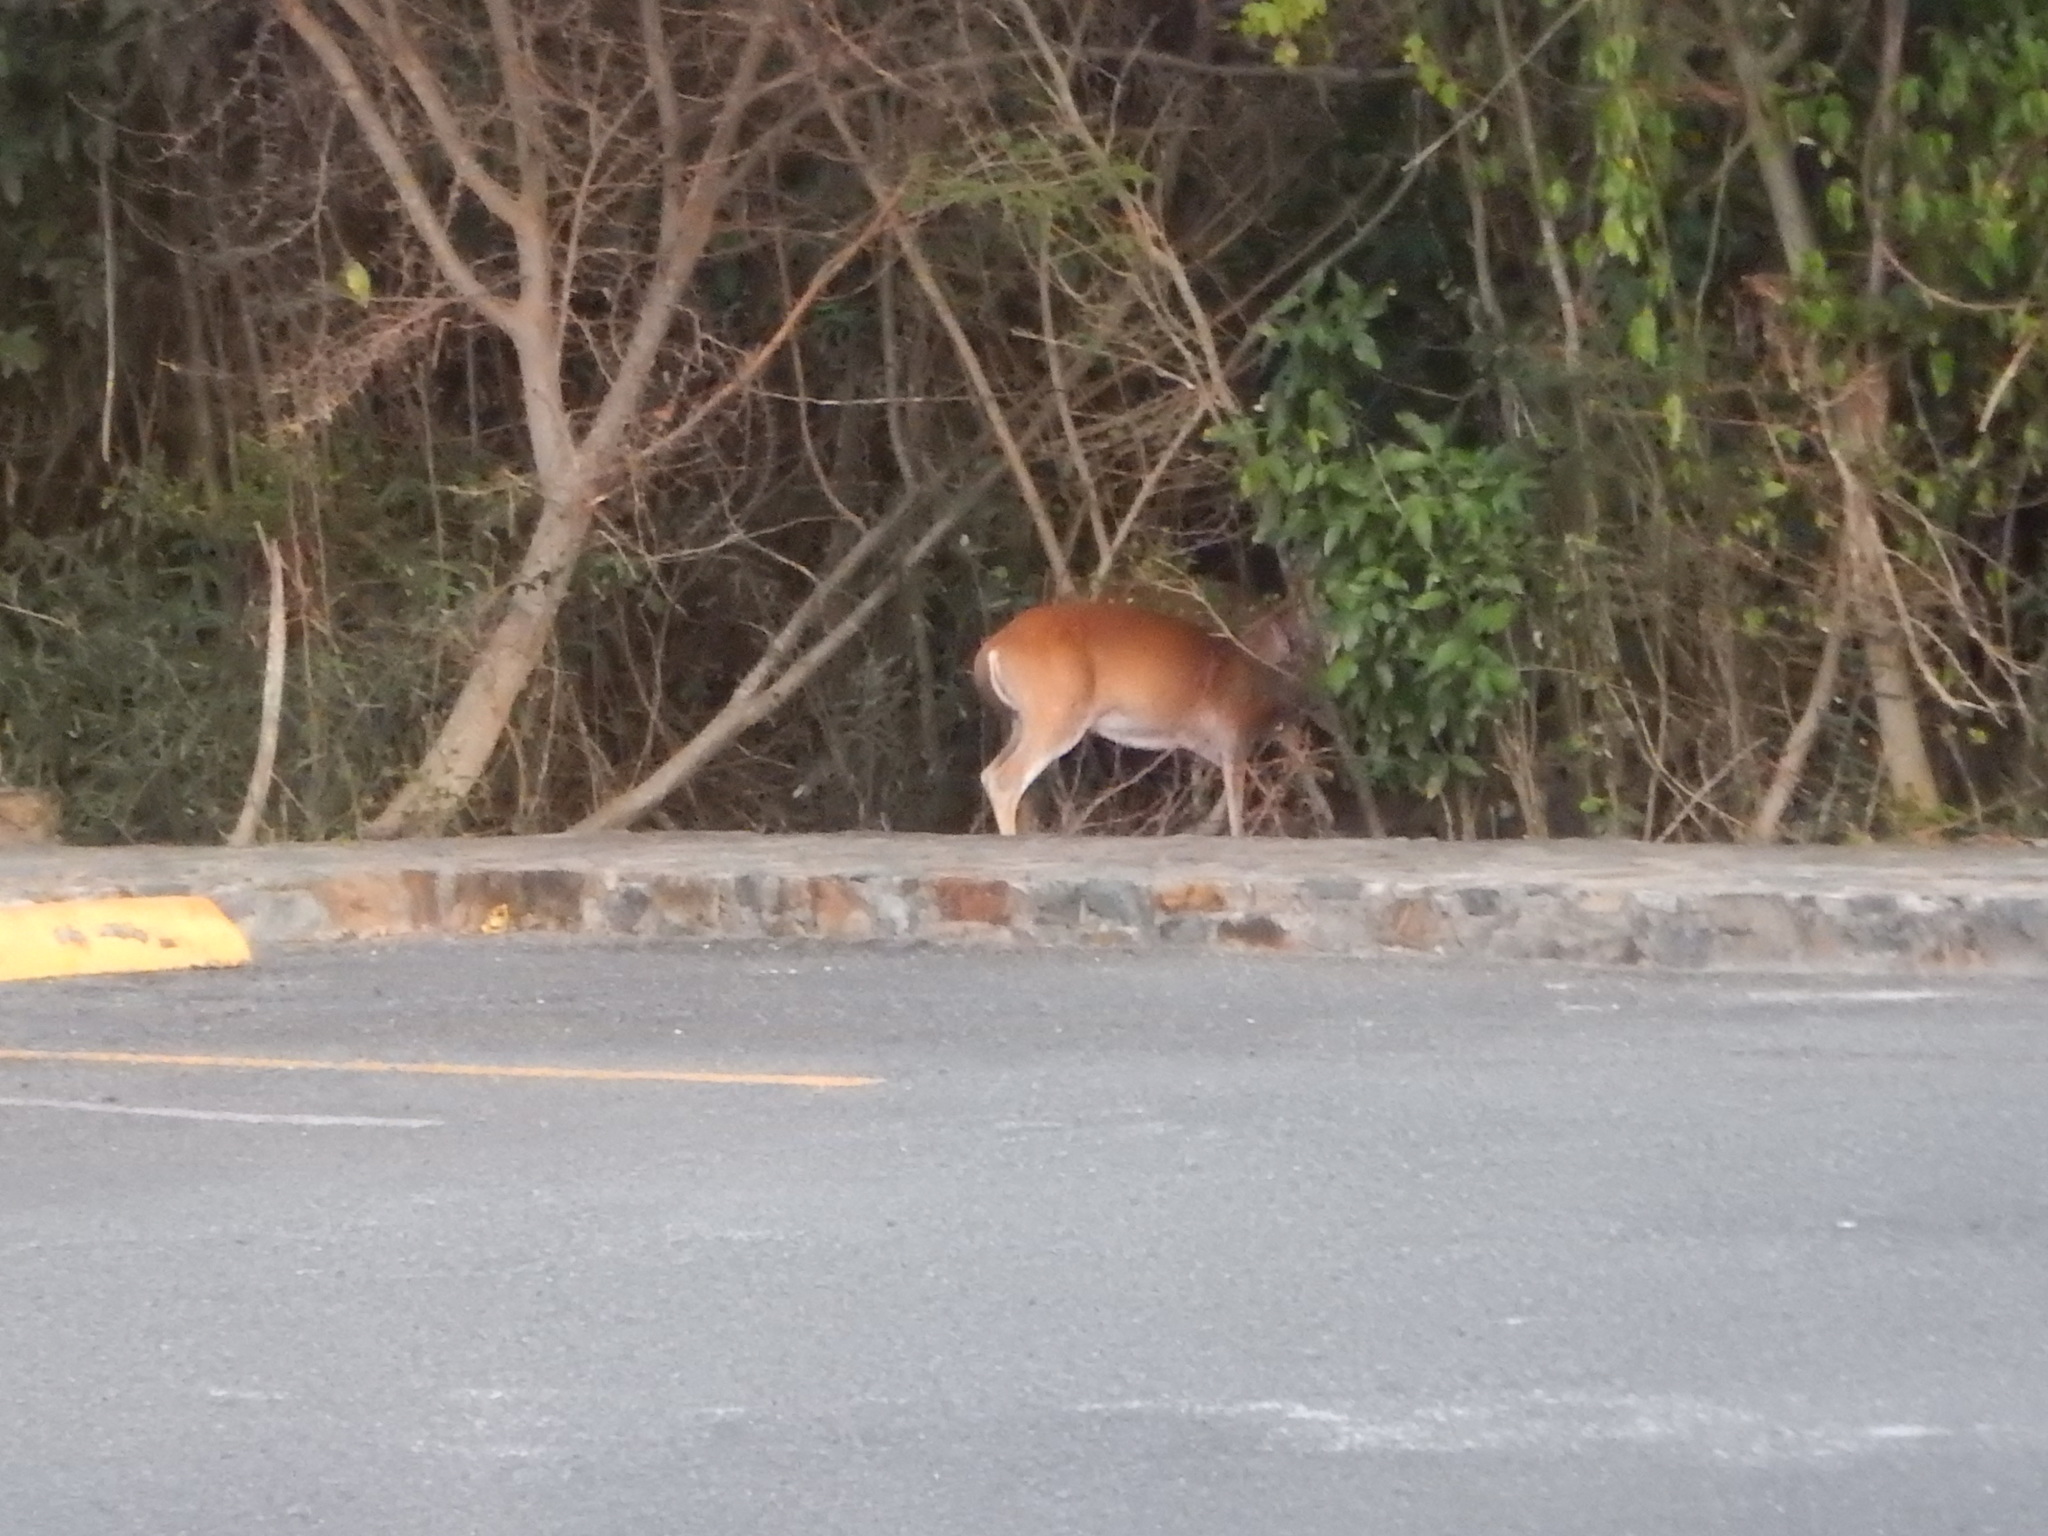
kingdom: Animalia
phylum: Chordata
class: Mammalia
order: Artiodactyla
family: Cervidae
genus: Odocoileus
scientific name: Odocoileus virginianus
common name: White-tailed deer
